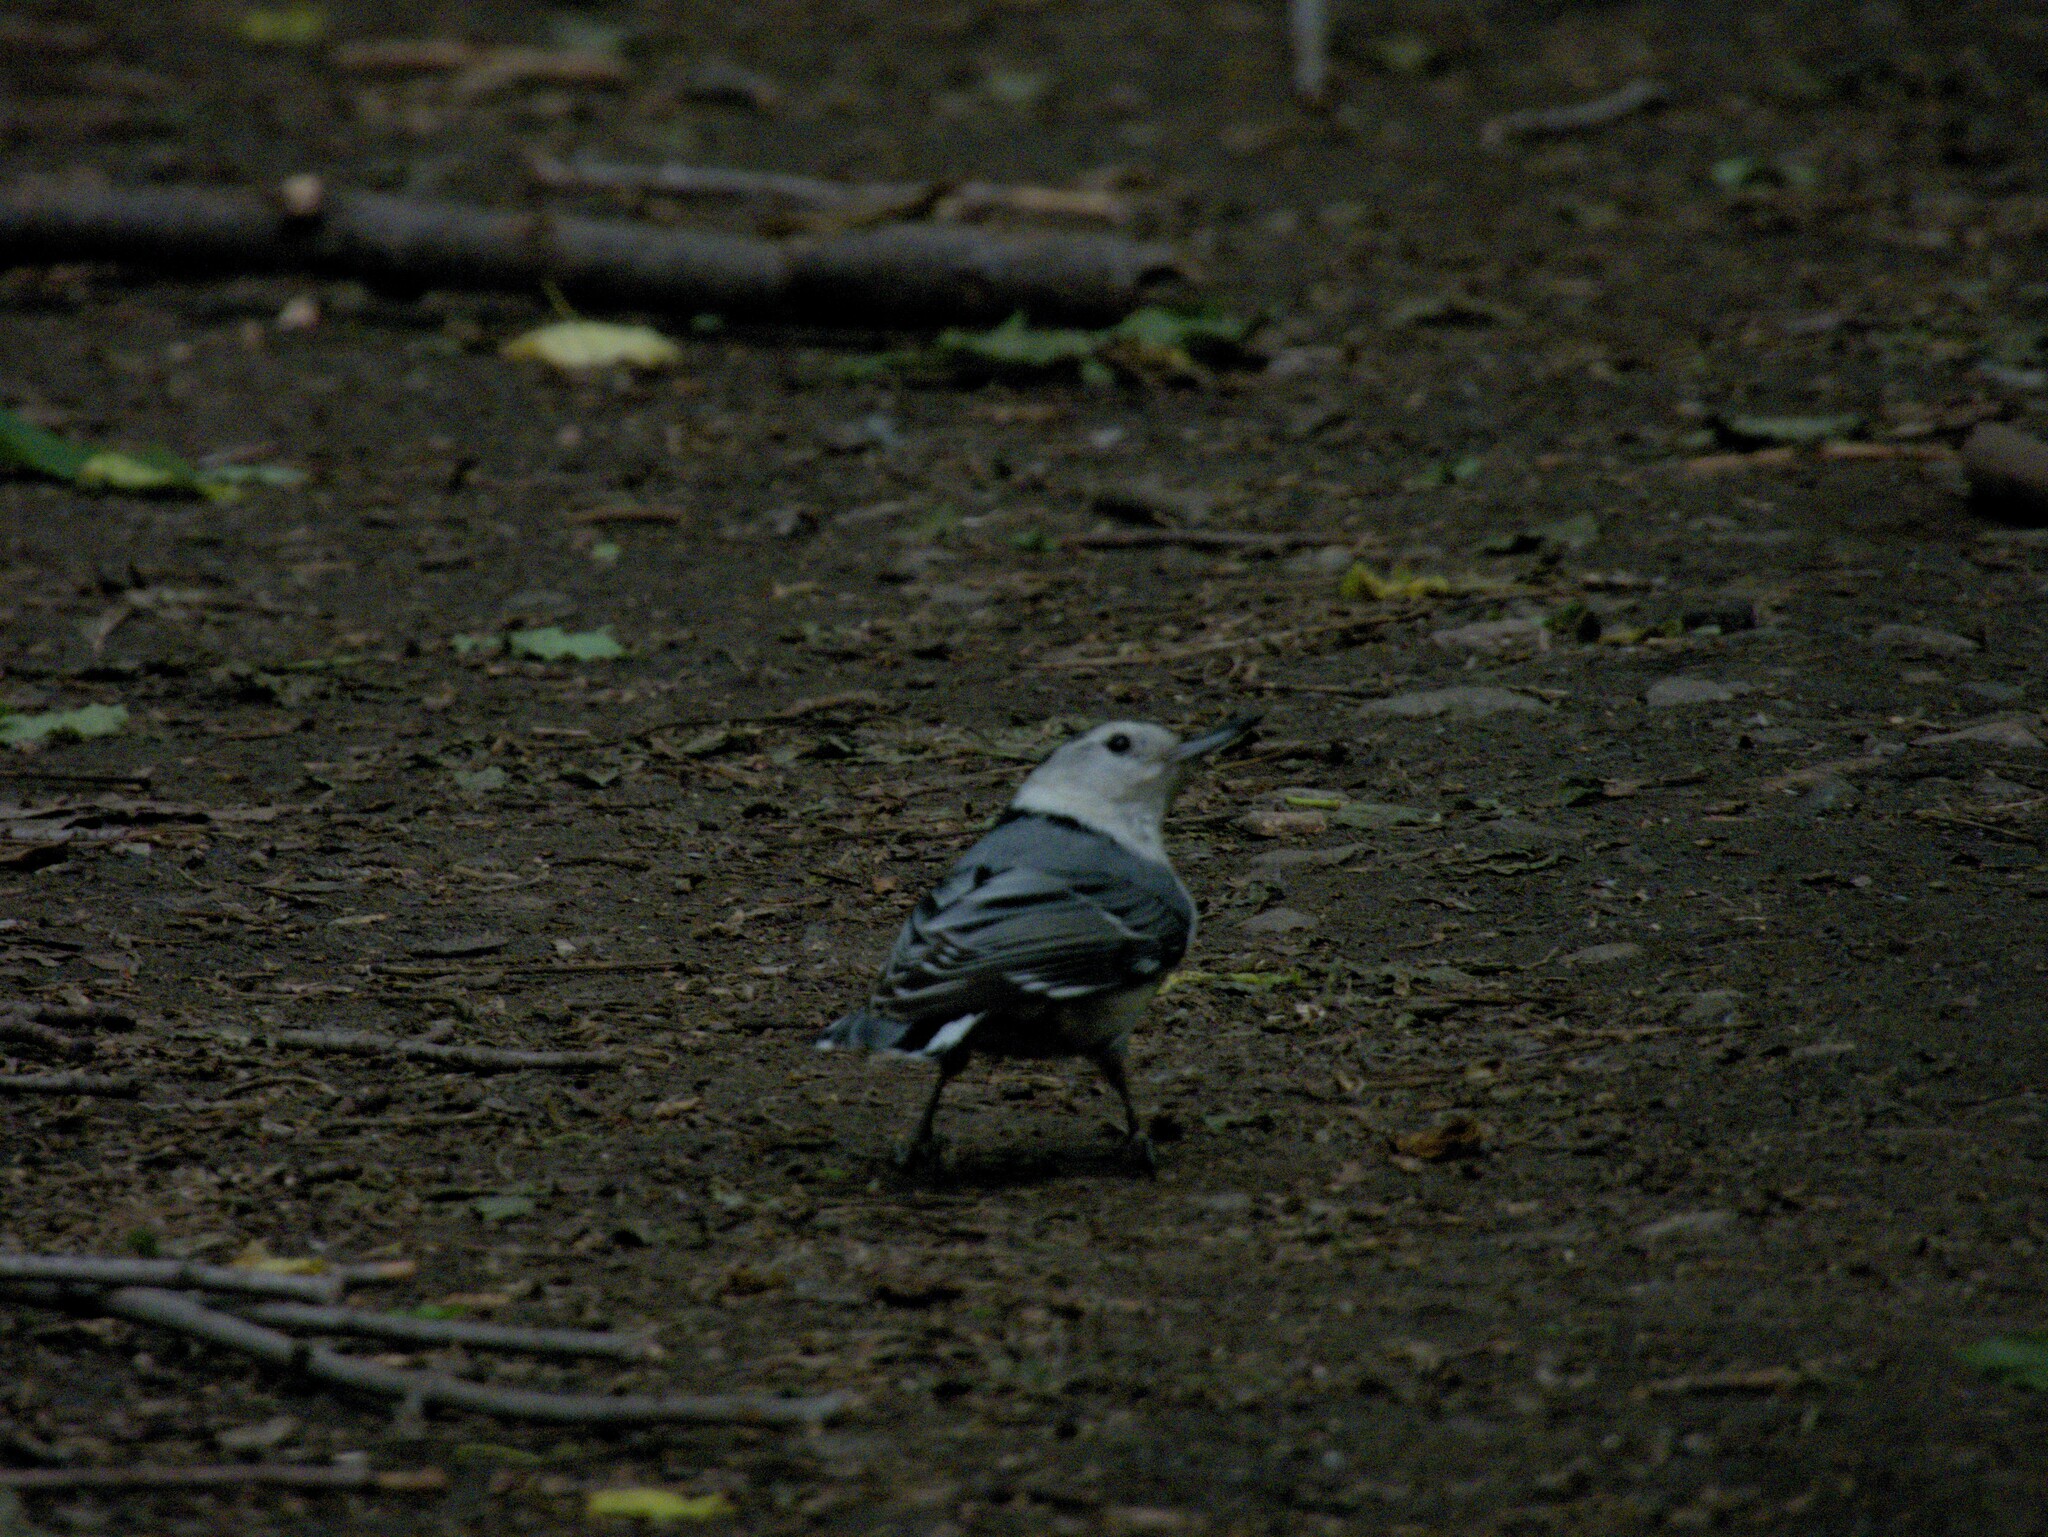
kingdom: Animalia
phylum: Chordata
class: Aves
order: Passeriformes
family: Sittidae
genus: Sitta
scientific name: Sitta carolinensis
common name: White-breasted nuthatch
